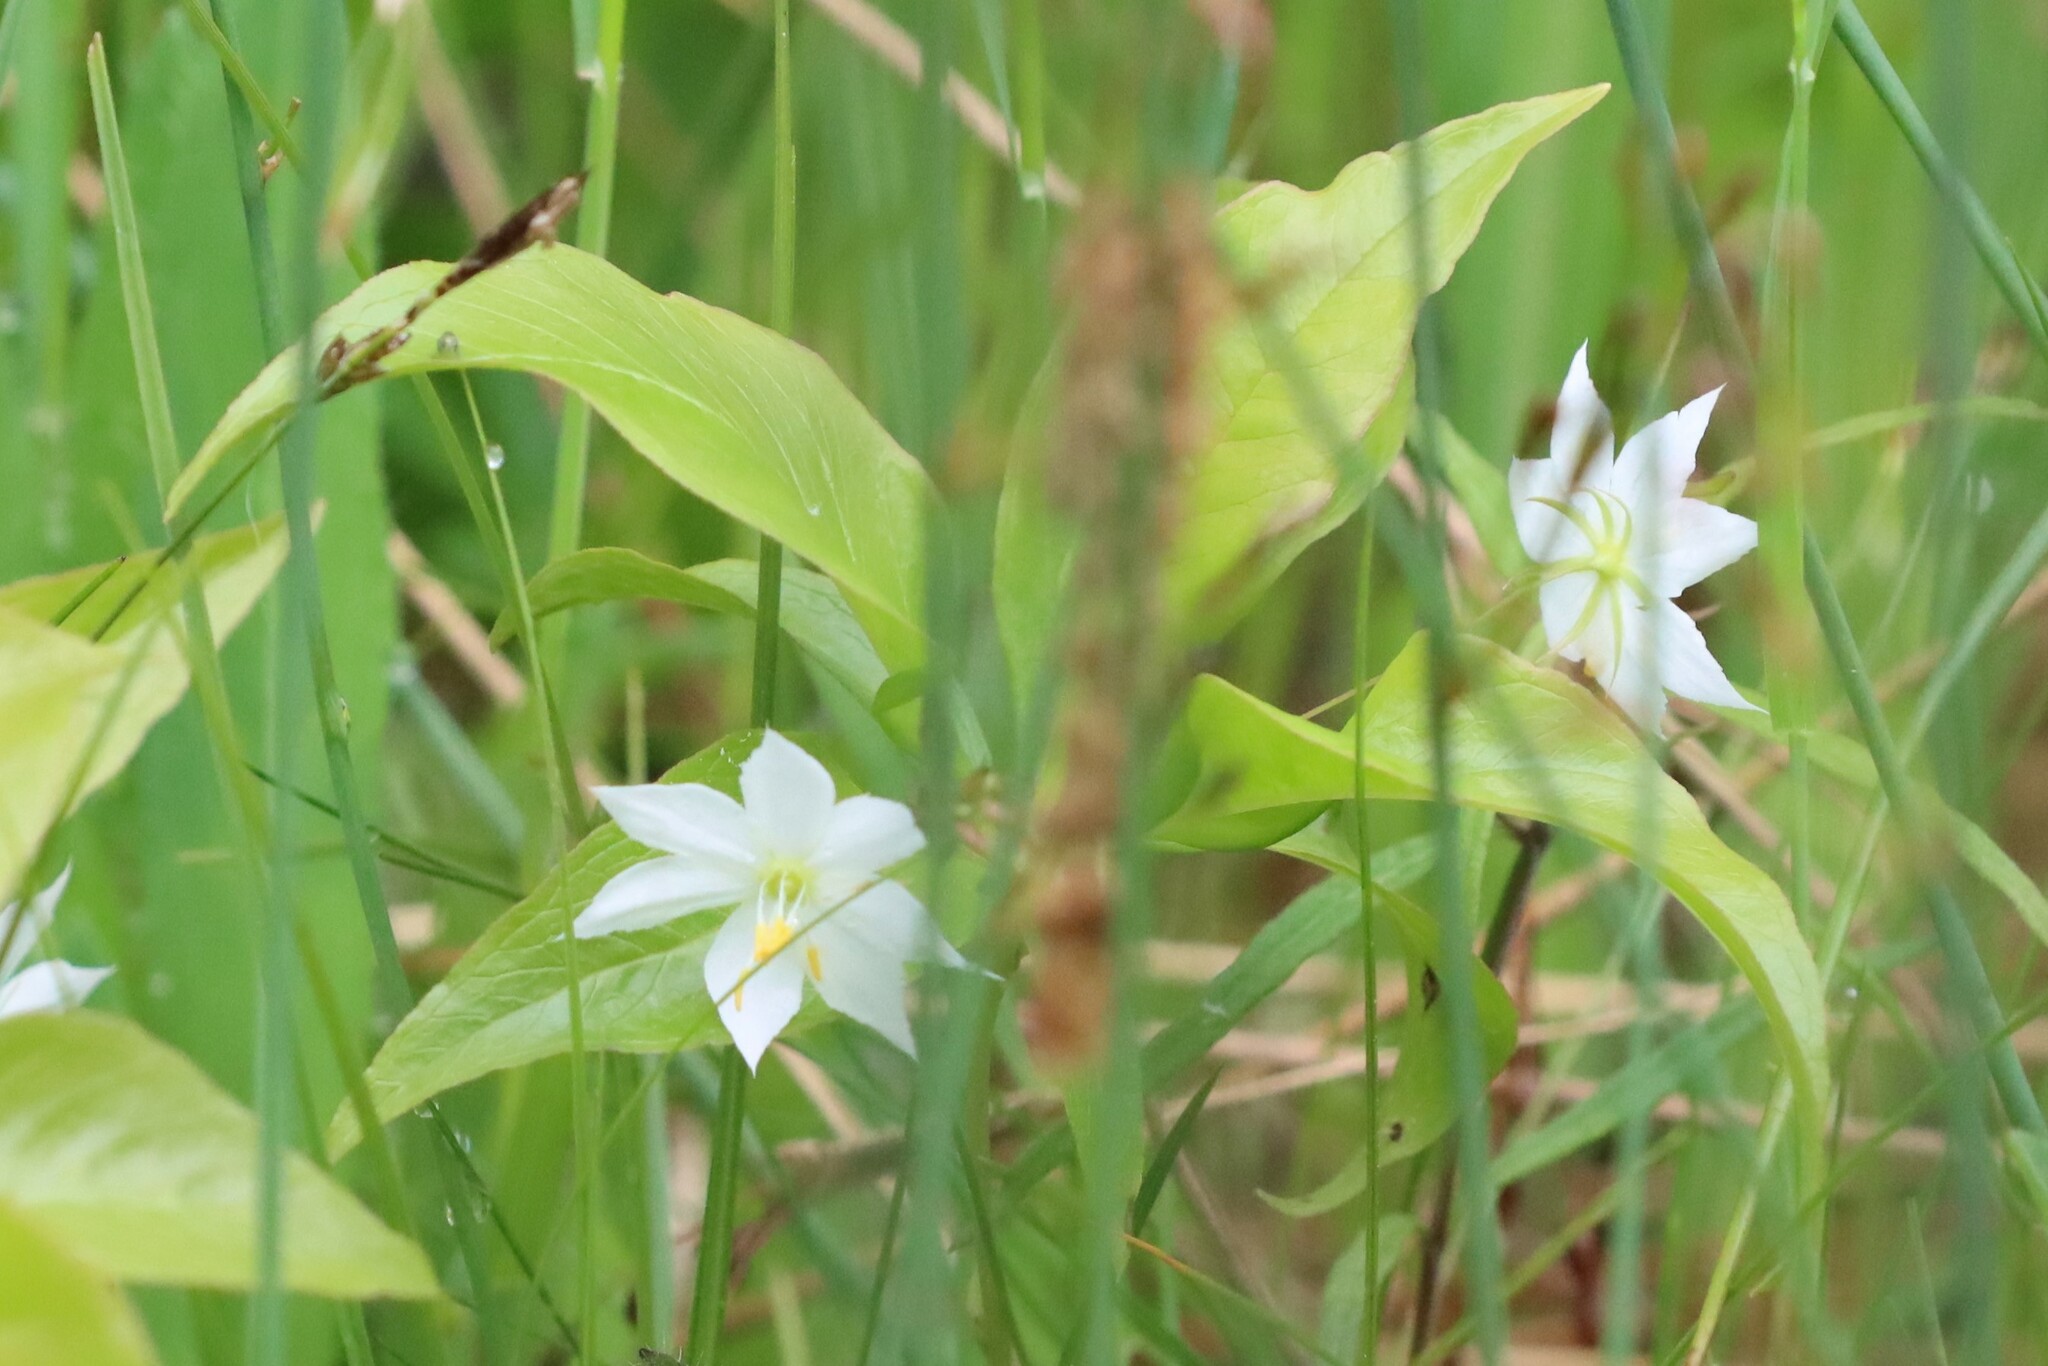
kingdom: Plantae
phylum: Tracheophyta
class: Magnoliopsida
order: Ericales
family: Primulaceae
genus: Lysimachia
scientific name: Lysimachia borealis
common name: American starflower
